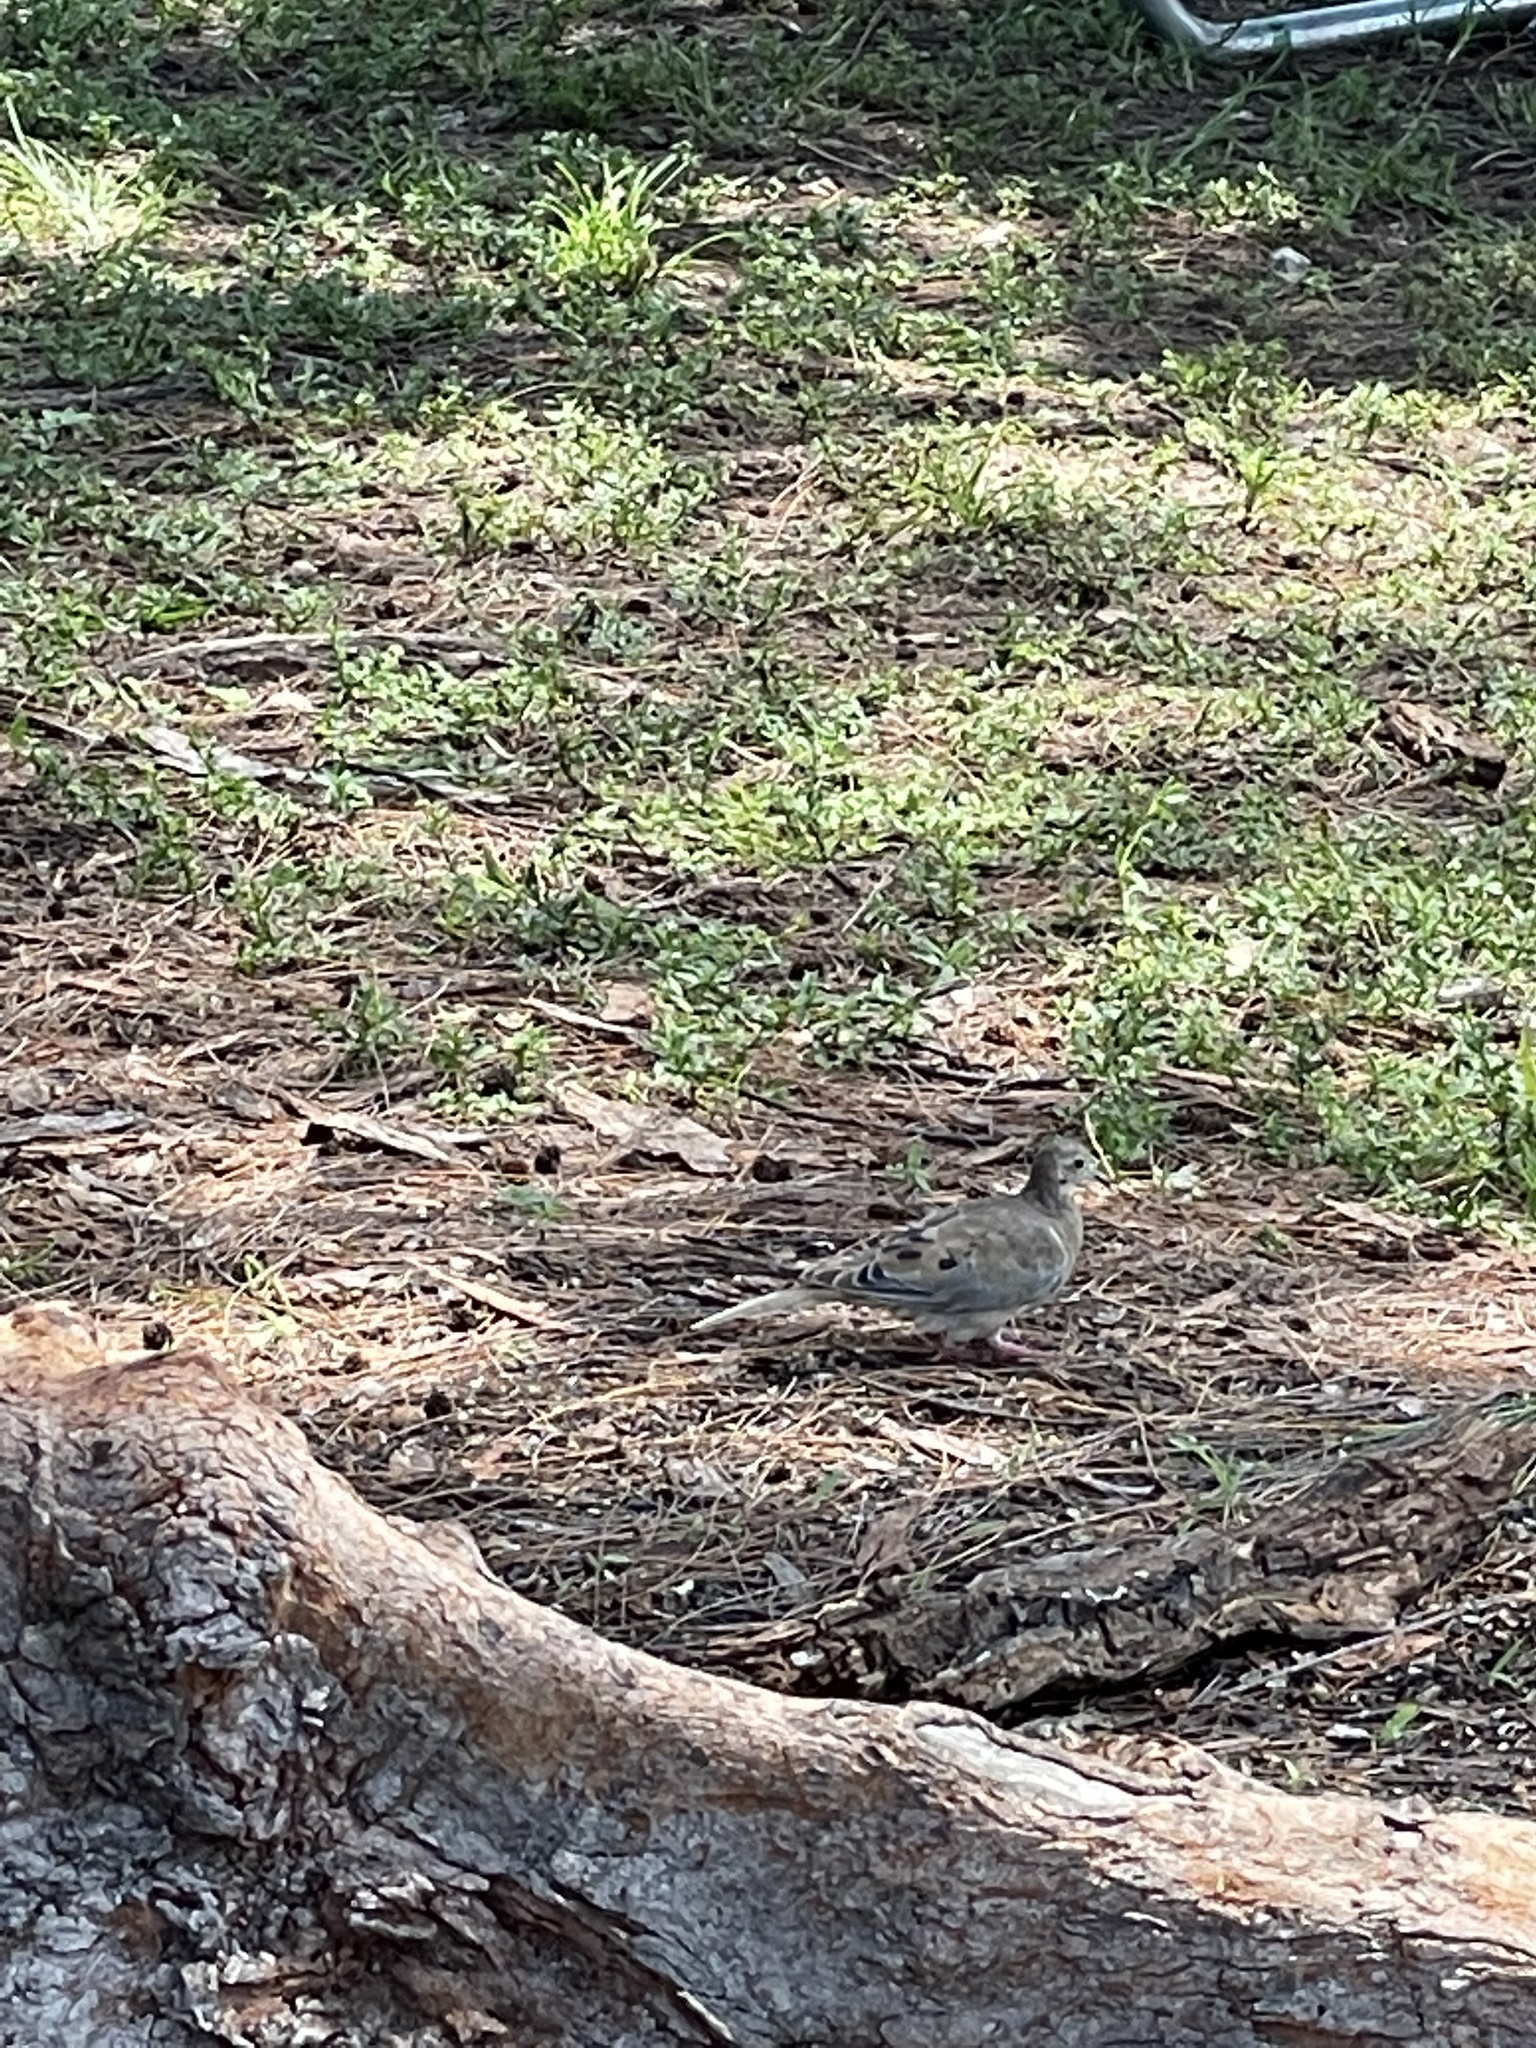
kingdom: Animalia
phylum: Chordata
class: Aves
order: Columbiformes
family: Columbidae
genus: Zenaida
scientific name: Zenaida macroura
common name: Mourning dove
